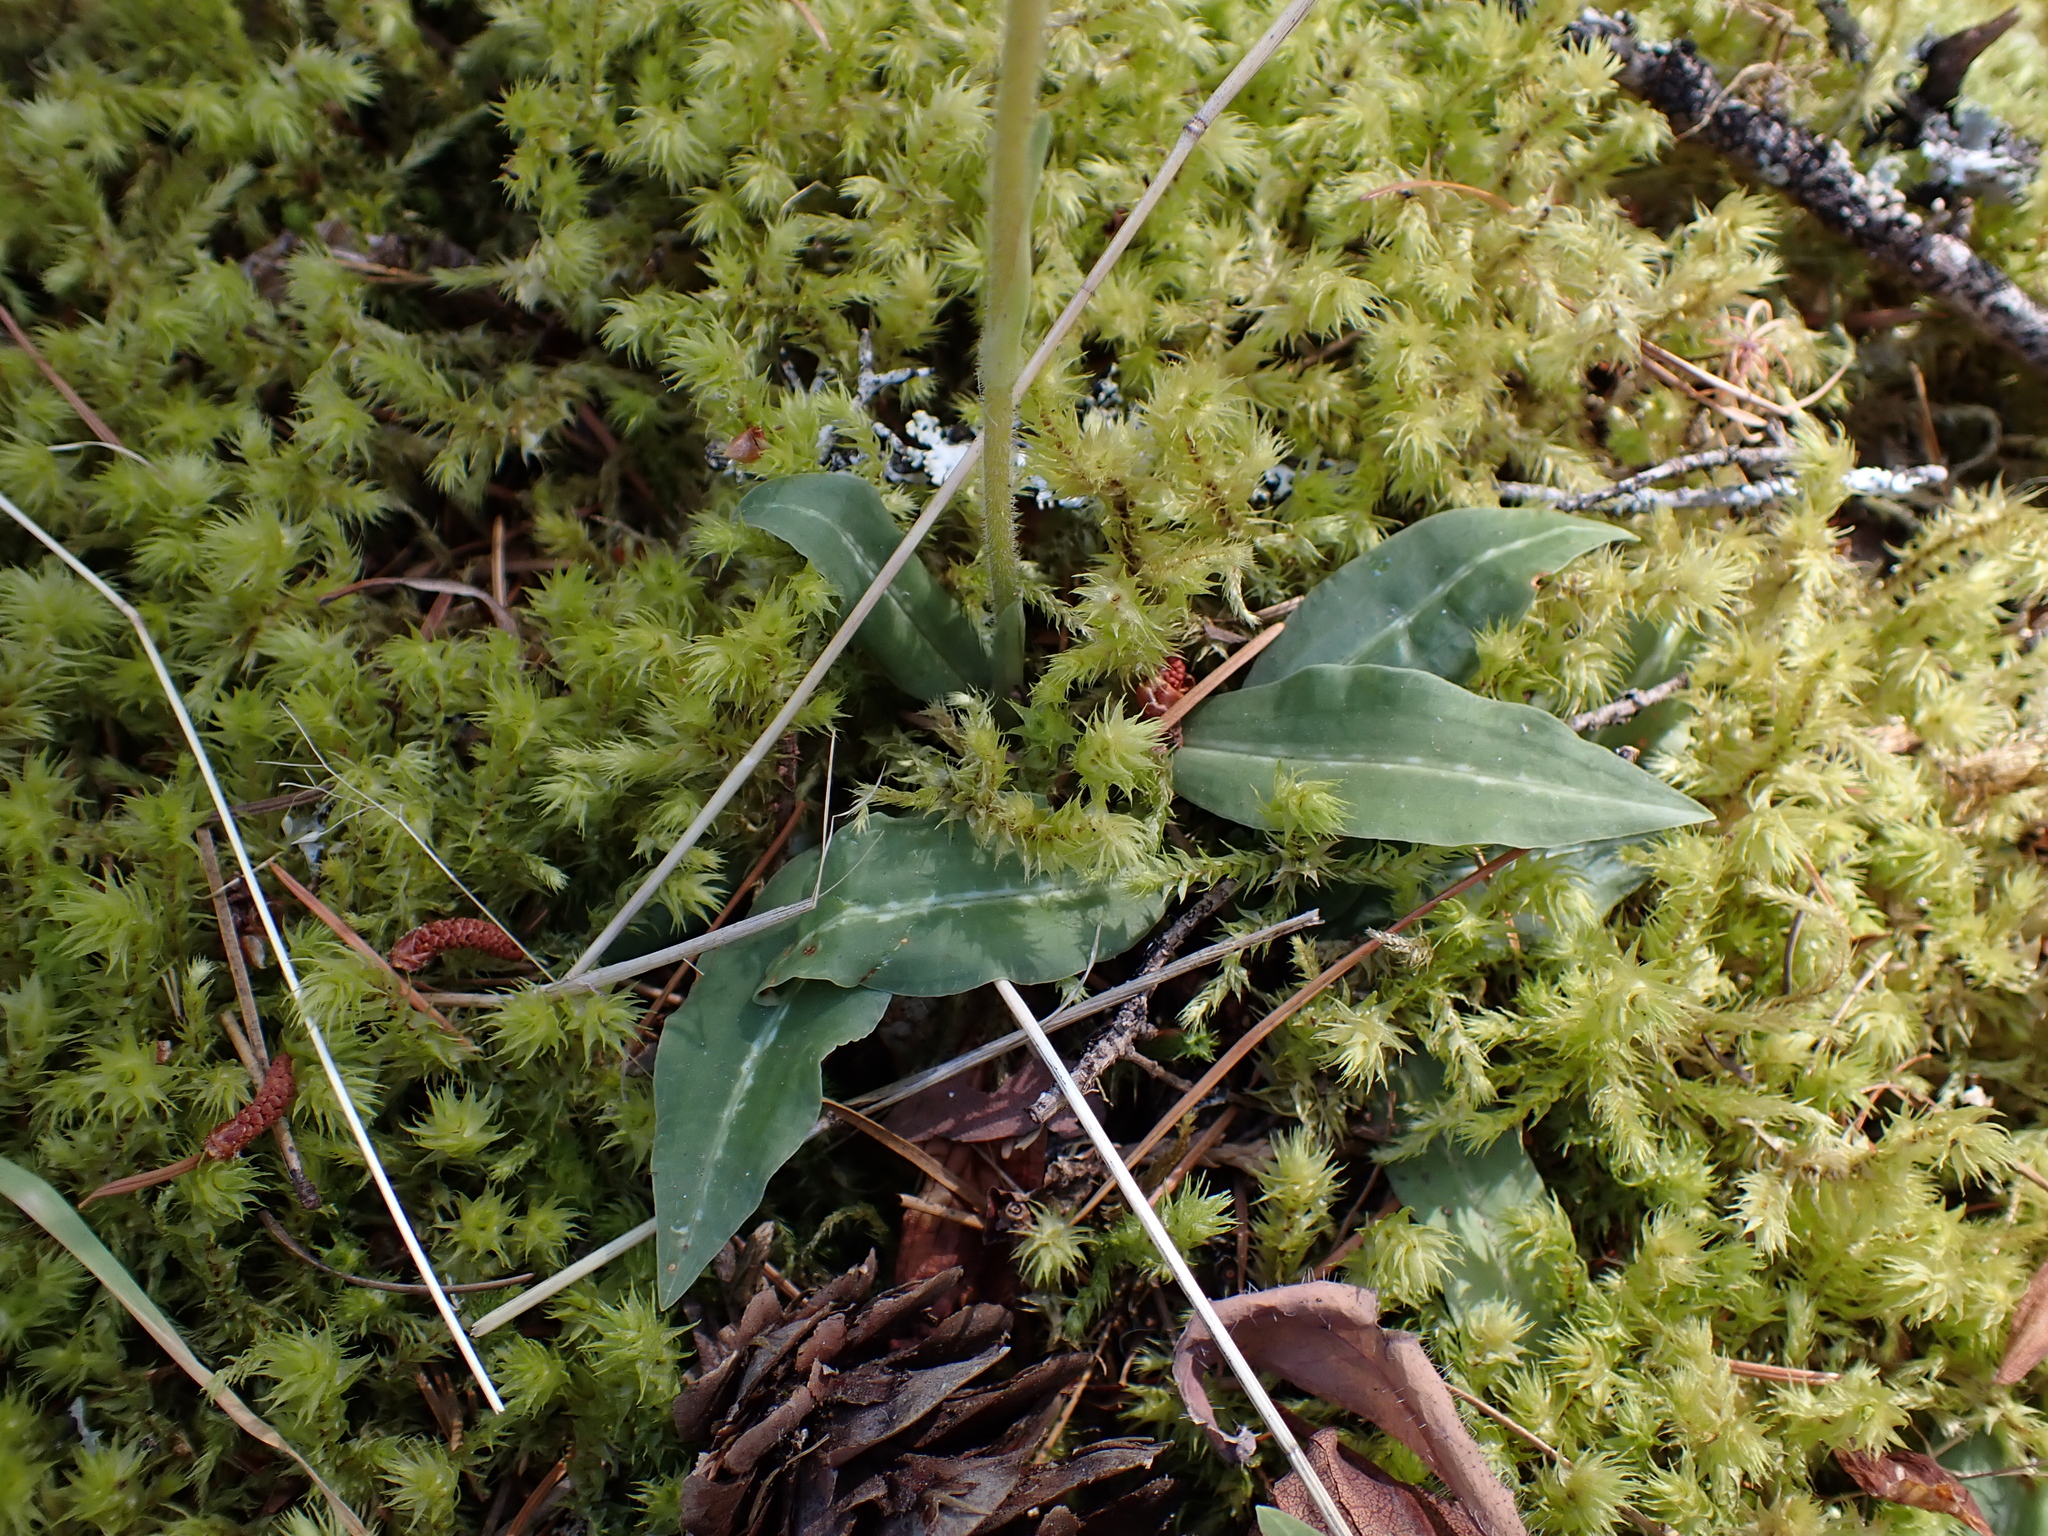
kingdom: Plantae
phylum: Tracheophyta
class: Liliopsida
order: Asparagales
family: Orchidaceae
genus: Goodyera
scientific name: Goodyera oblongifolia
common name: Giant rattlesnake-plantain
